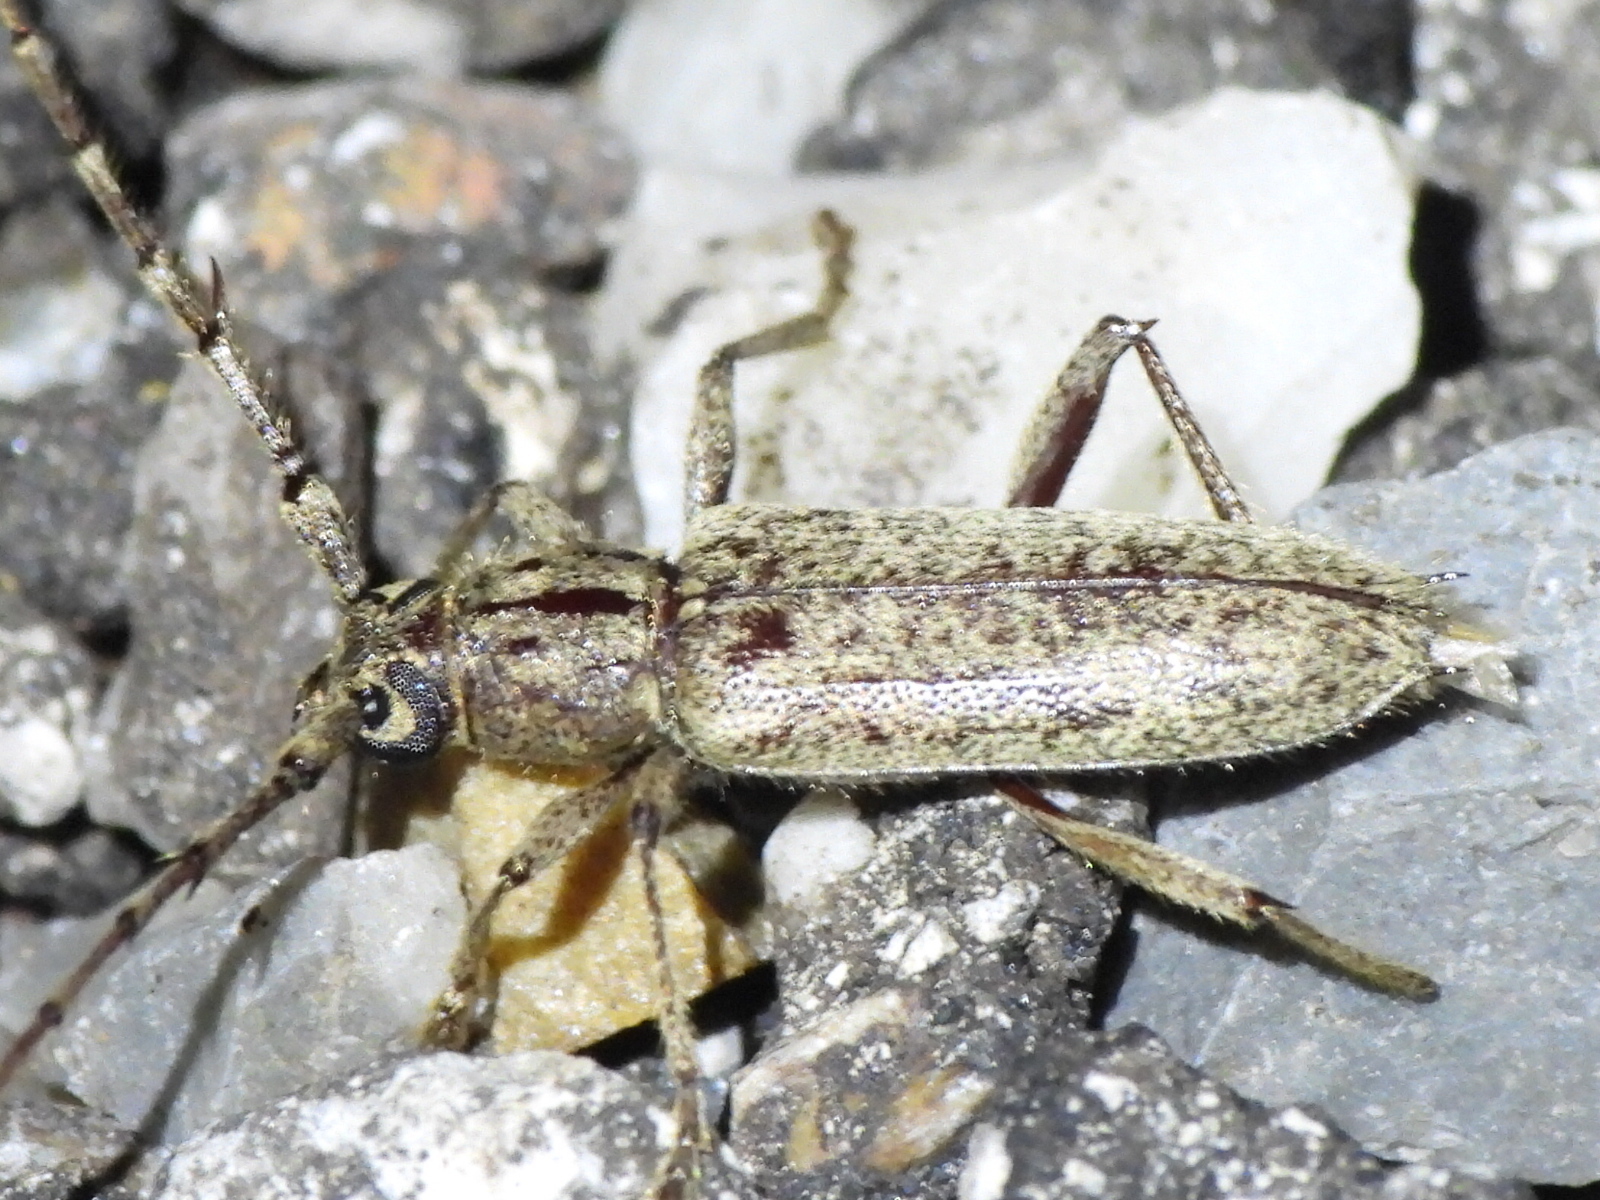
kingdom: Animalia
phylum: Arthropoda
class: Insecta
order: Coleoptera
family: Cerambycidae
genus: Elaphidion
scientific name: Elaphidion mucronatum
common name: Spined oak borer
